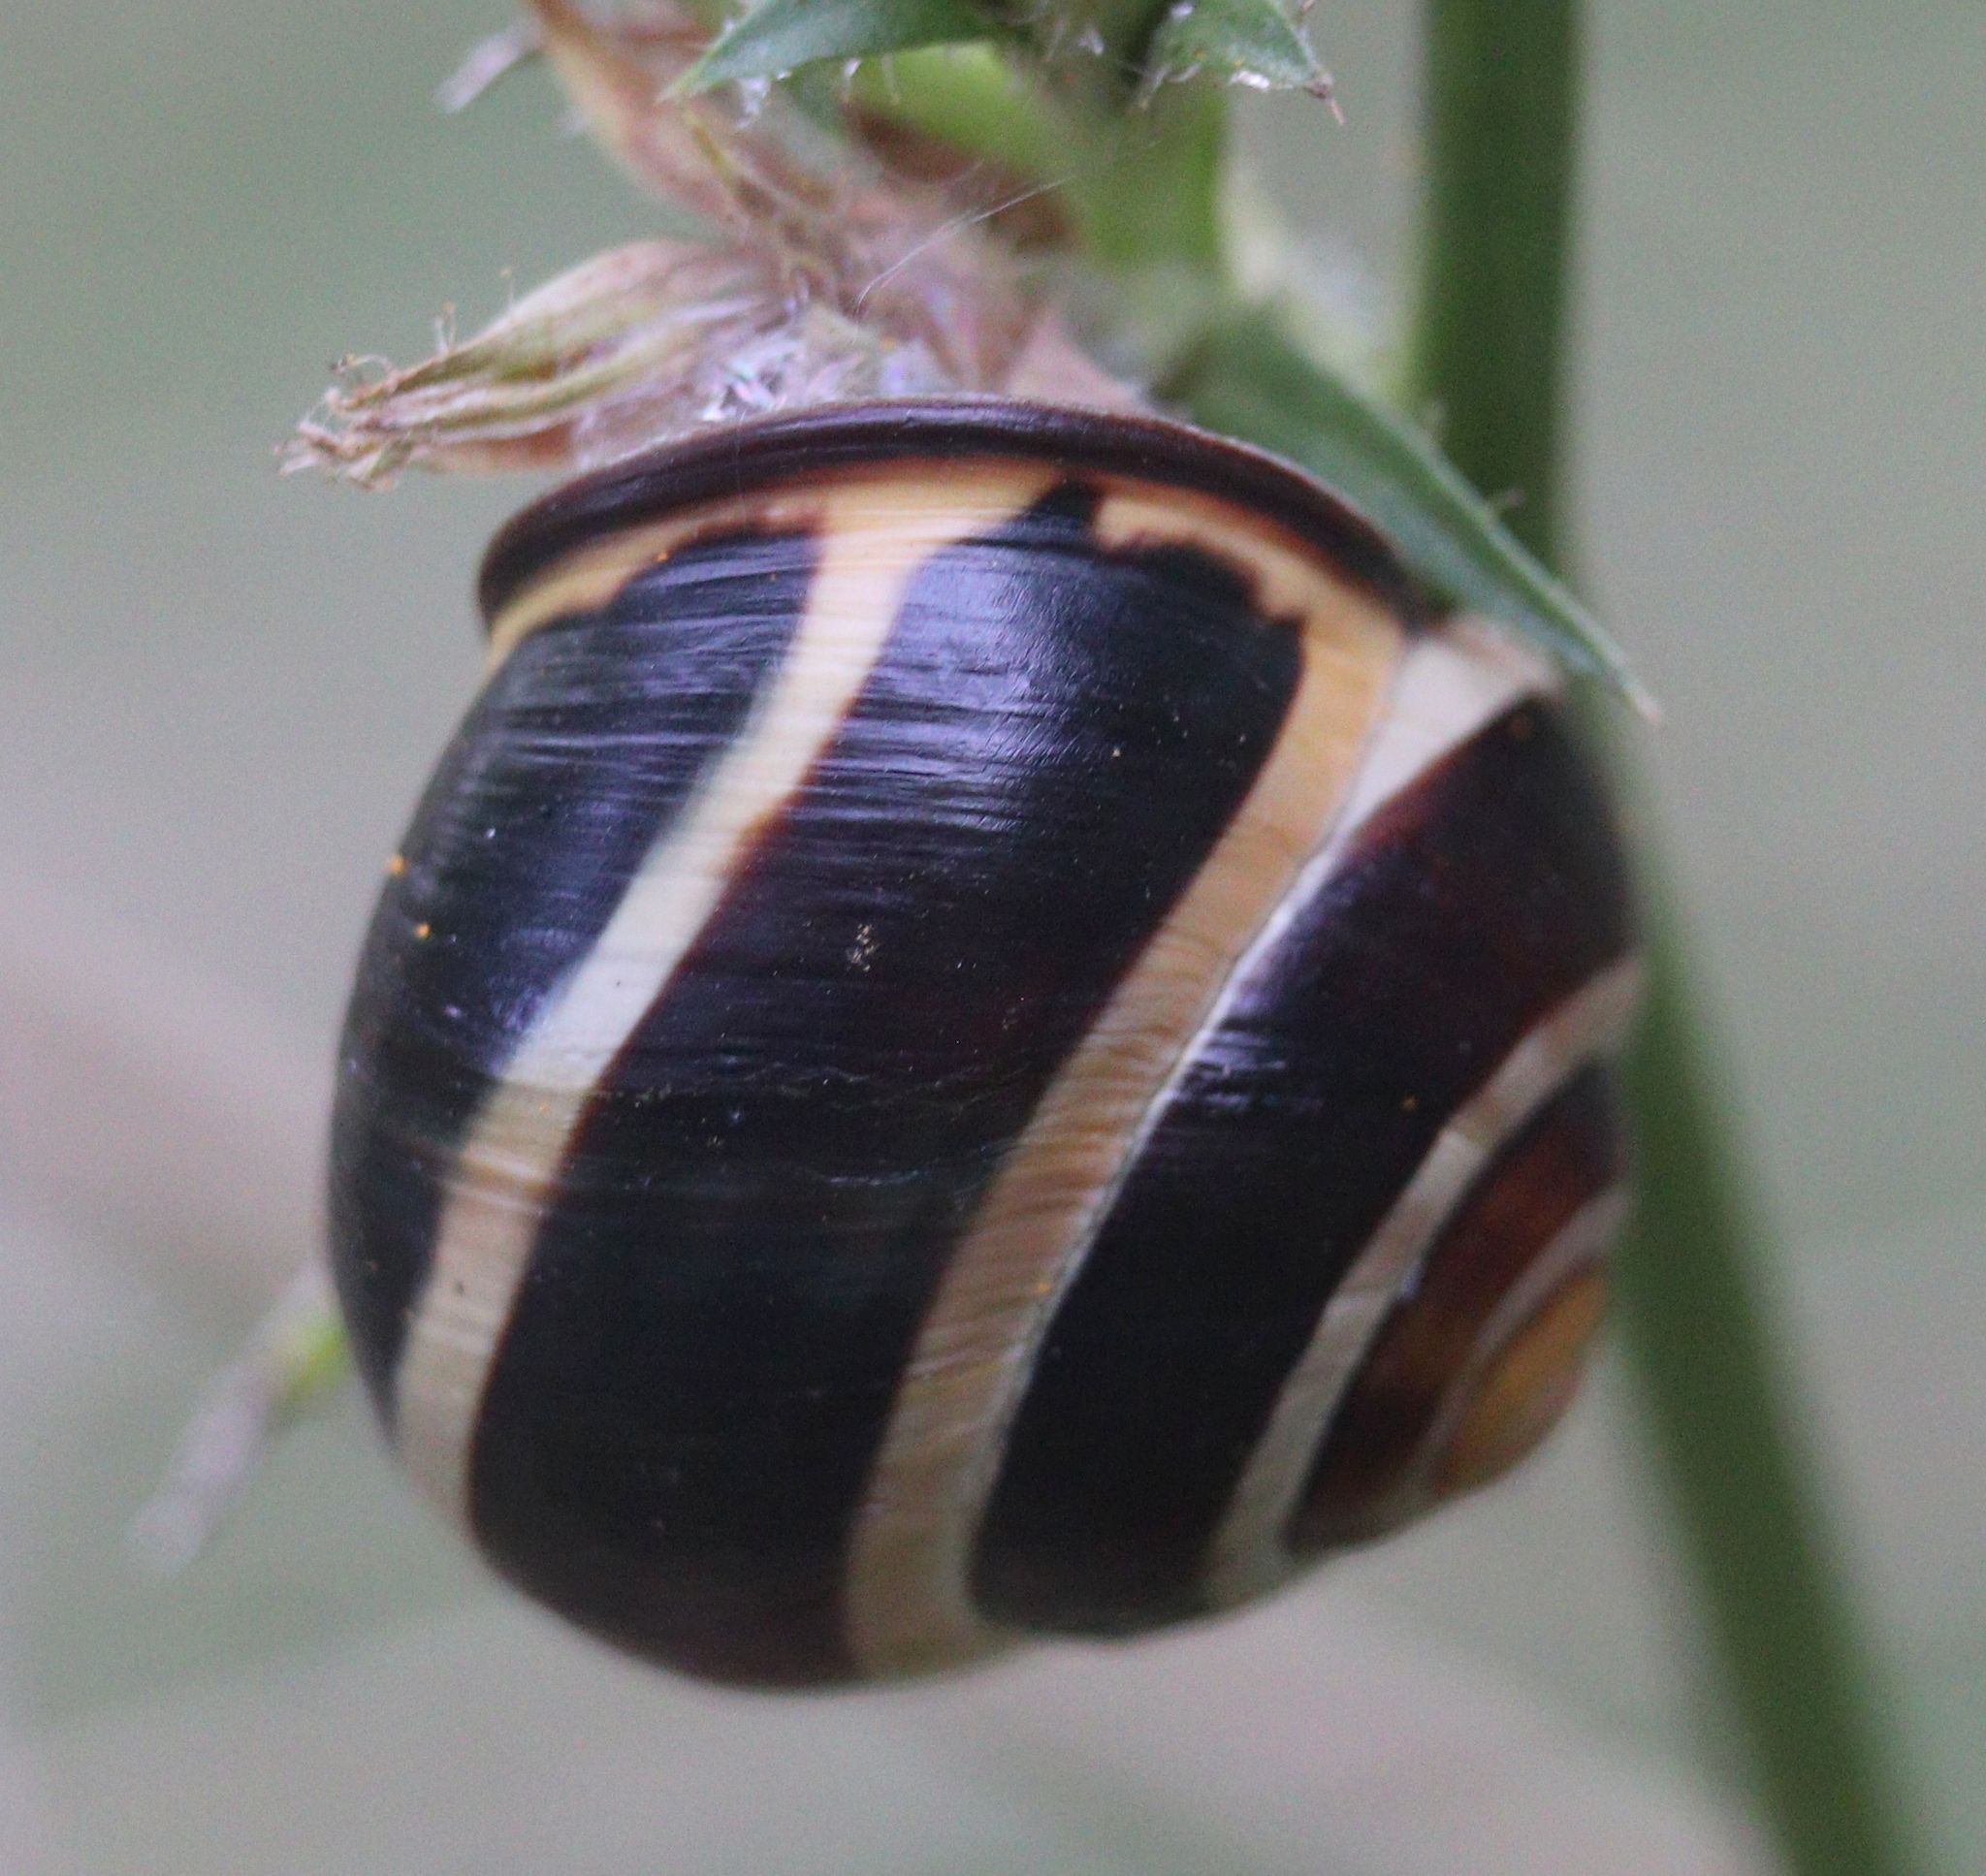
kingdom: Animalia
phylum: Mollusca
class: Gastropoda
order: Stylommatophora
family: Helicidae
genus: Cepaea
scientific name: Cepaea nemoralis
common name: Grovesnail
